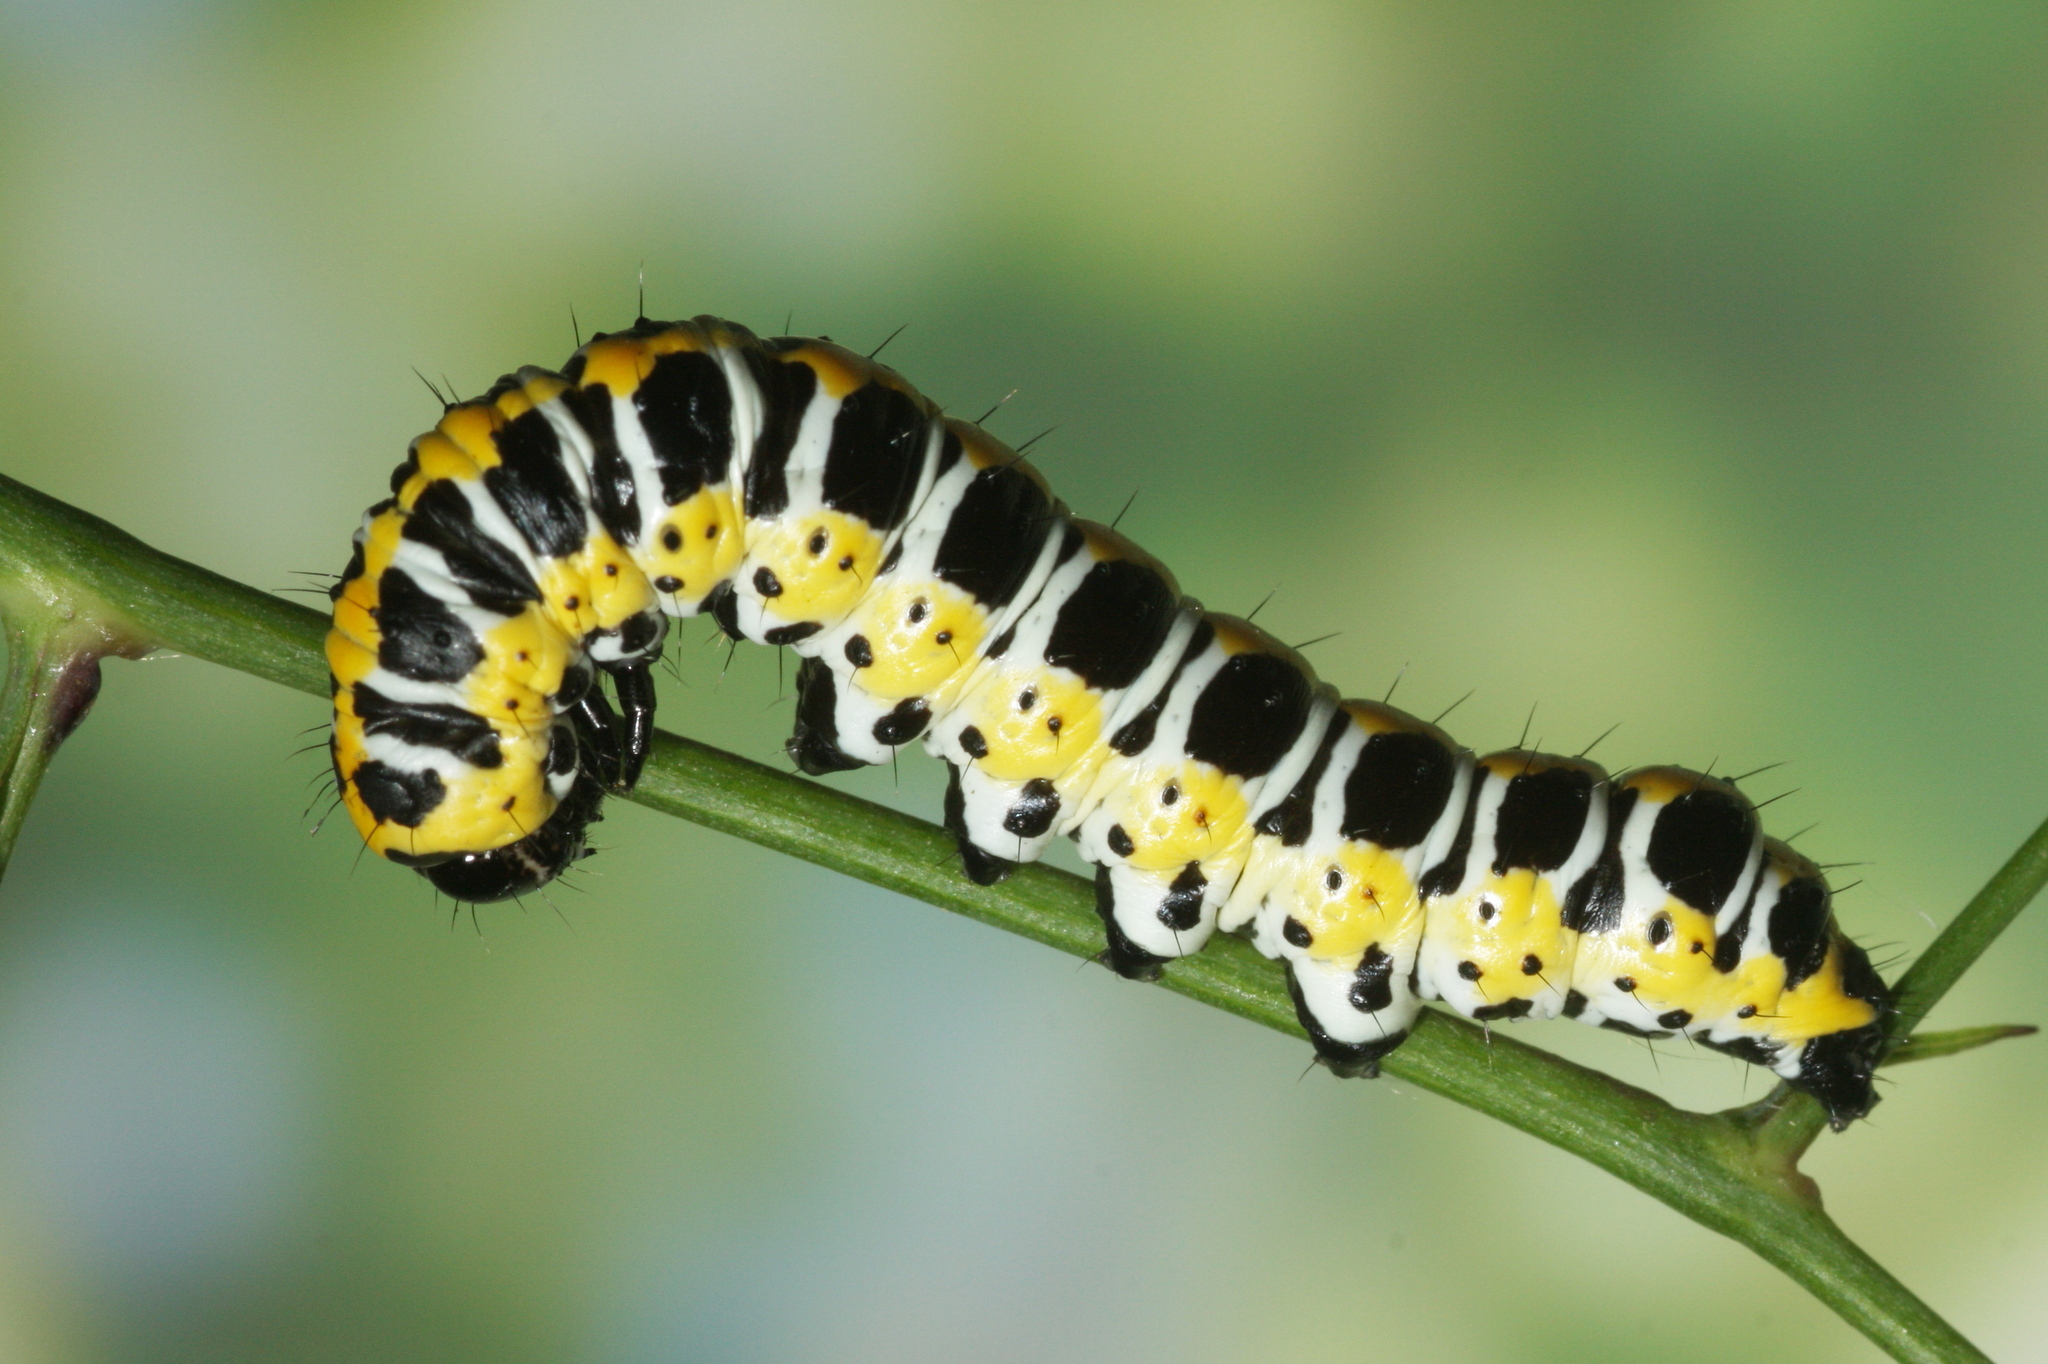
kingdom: Animalia
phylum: Arthropoda
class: Insecta
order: Lepidoptera
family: Noctuidae
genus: Cucullia
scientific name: Cucullia lactucae
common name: Lettuce shark
